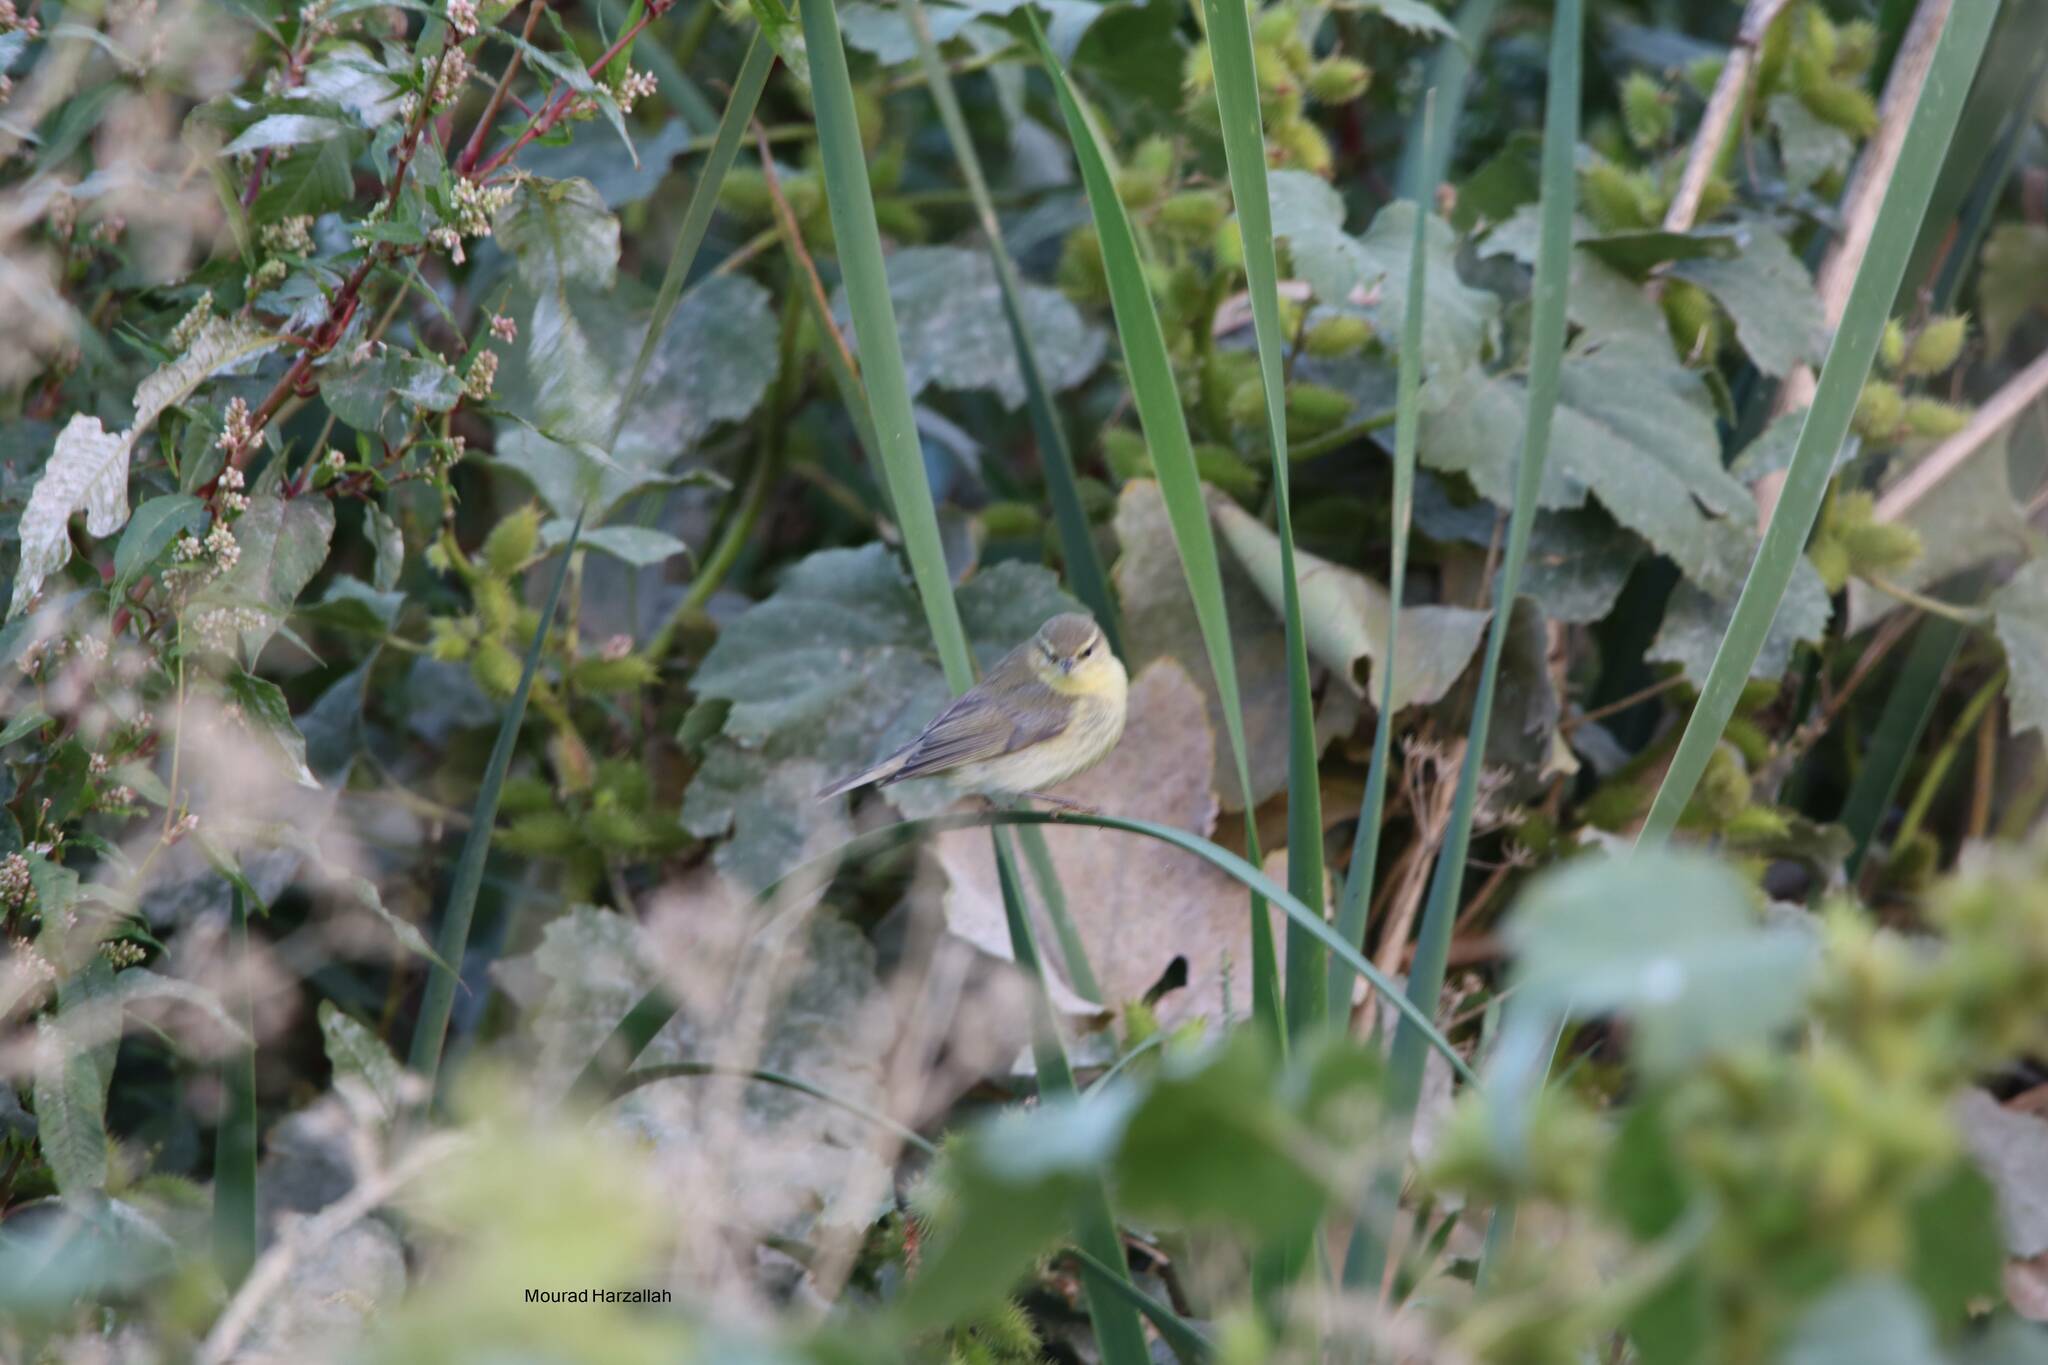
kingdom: Animalia
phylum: Chordata
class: Aves
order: Passeriformes
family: Phylloscopidae
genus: Phylloscopus
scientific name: Phylloscopus trochilus
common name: Willow warbler
